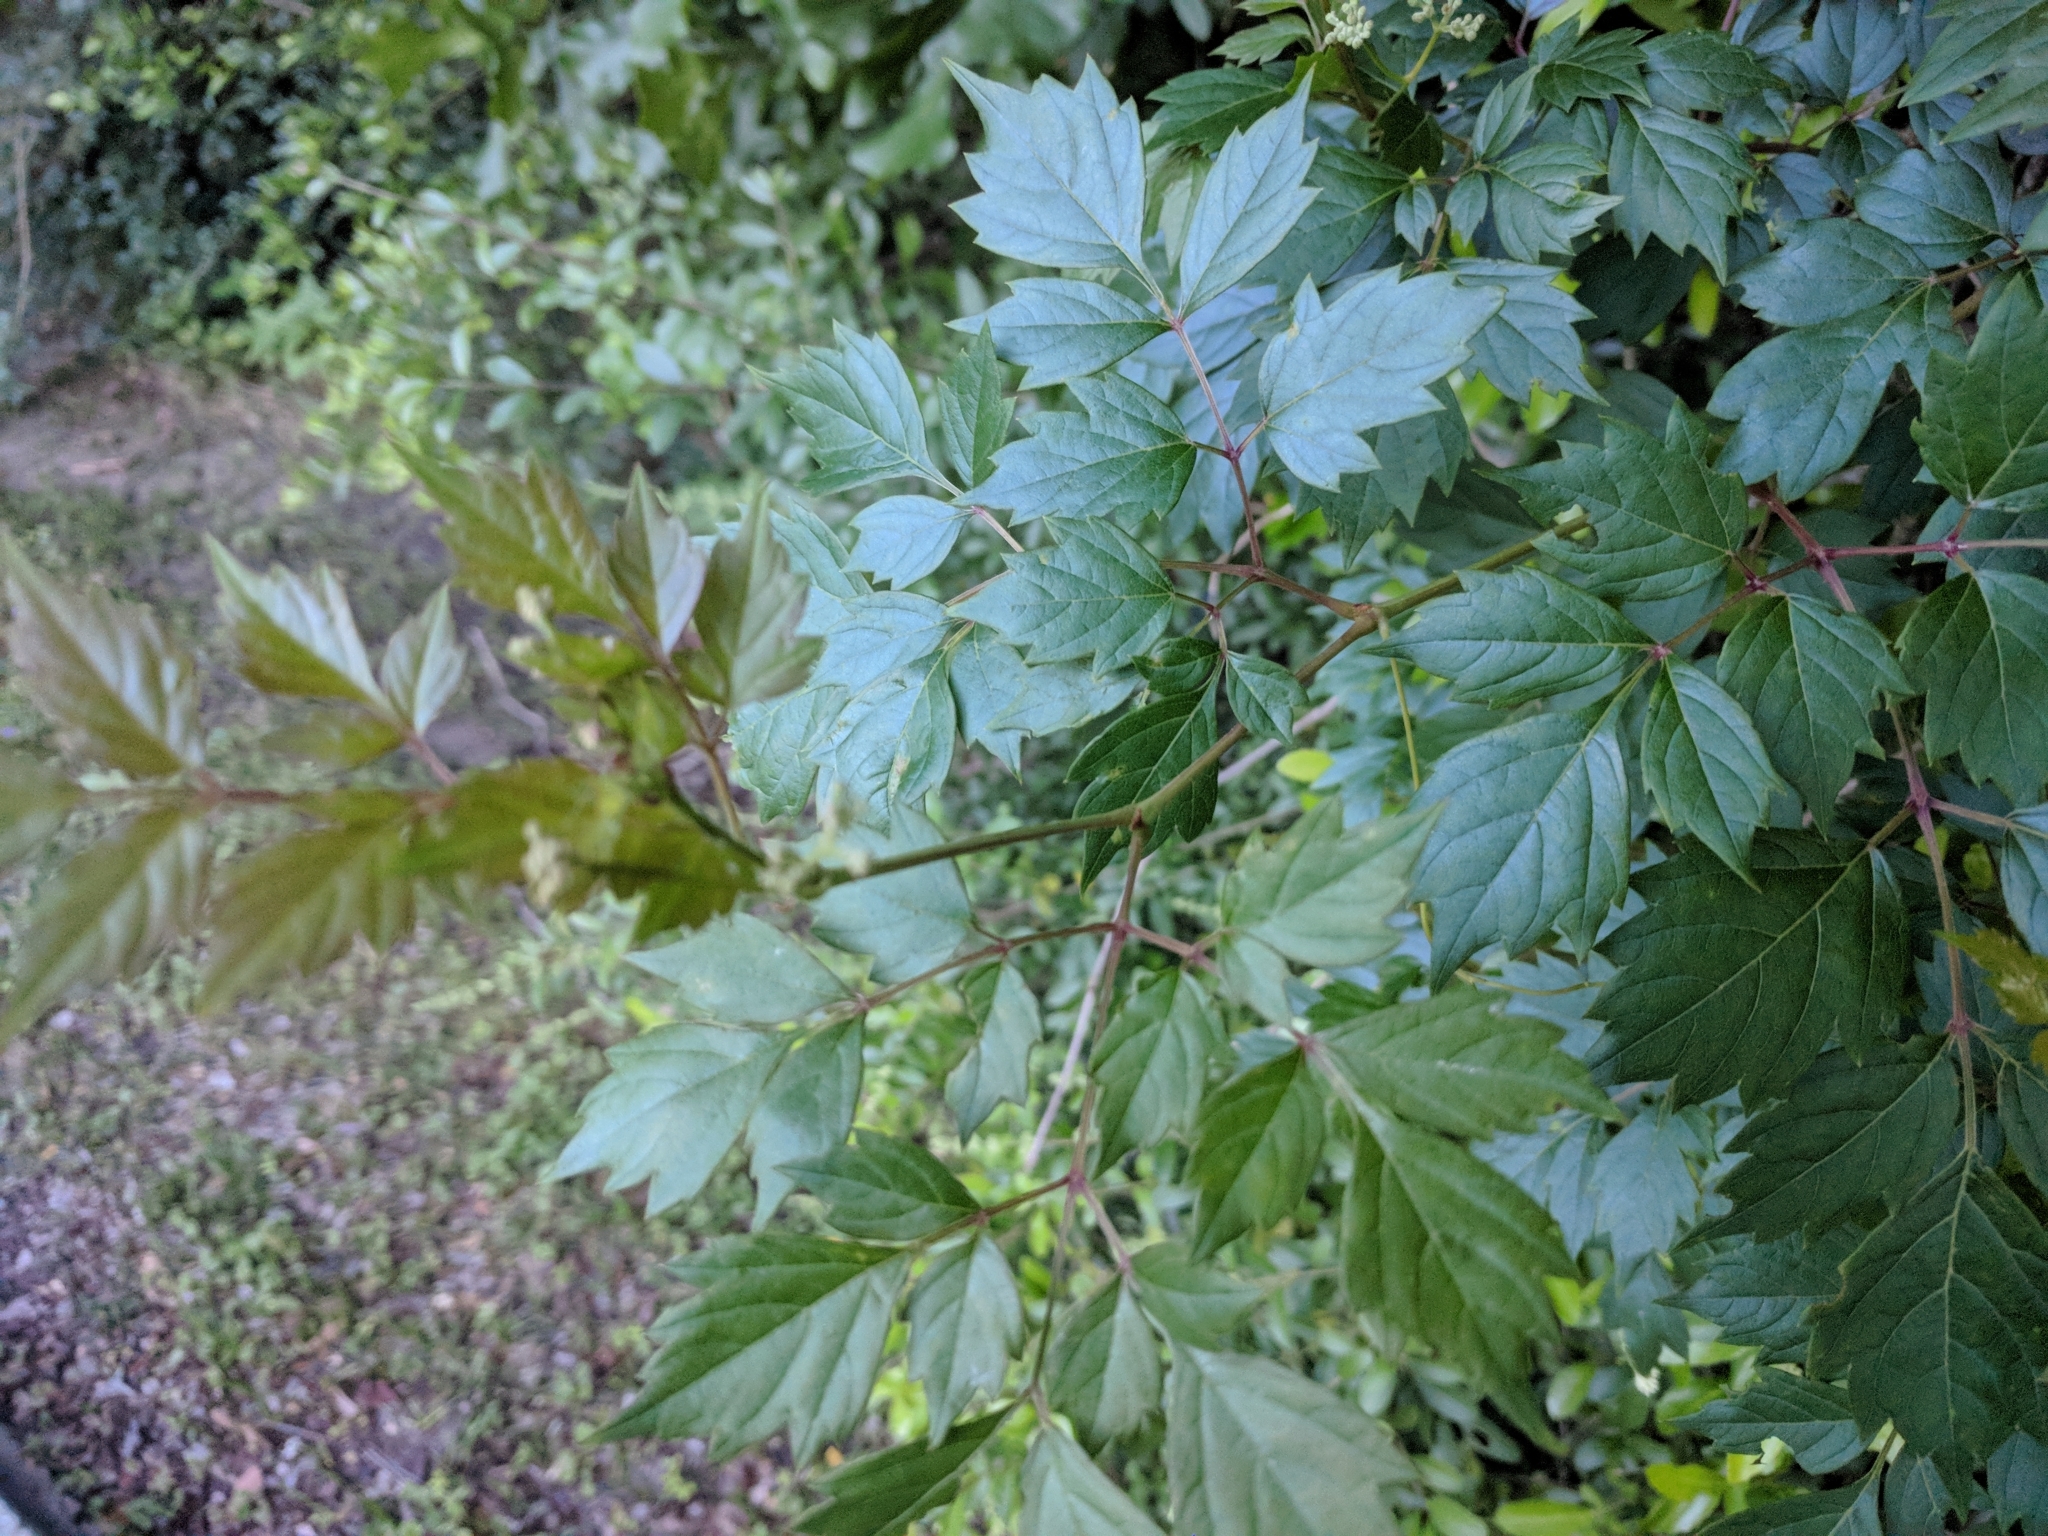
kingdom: Plantae
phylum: Tracheophyta
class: Magnoliopsida
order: Vitales
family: Vitaceae
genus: Nekemias
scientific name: Nekemias arborea
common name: Peppervine
